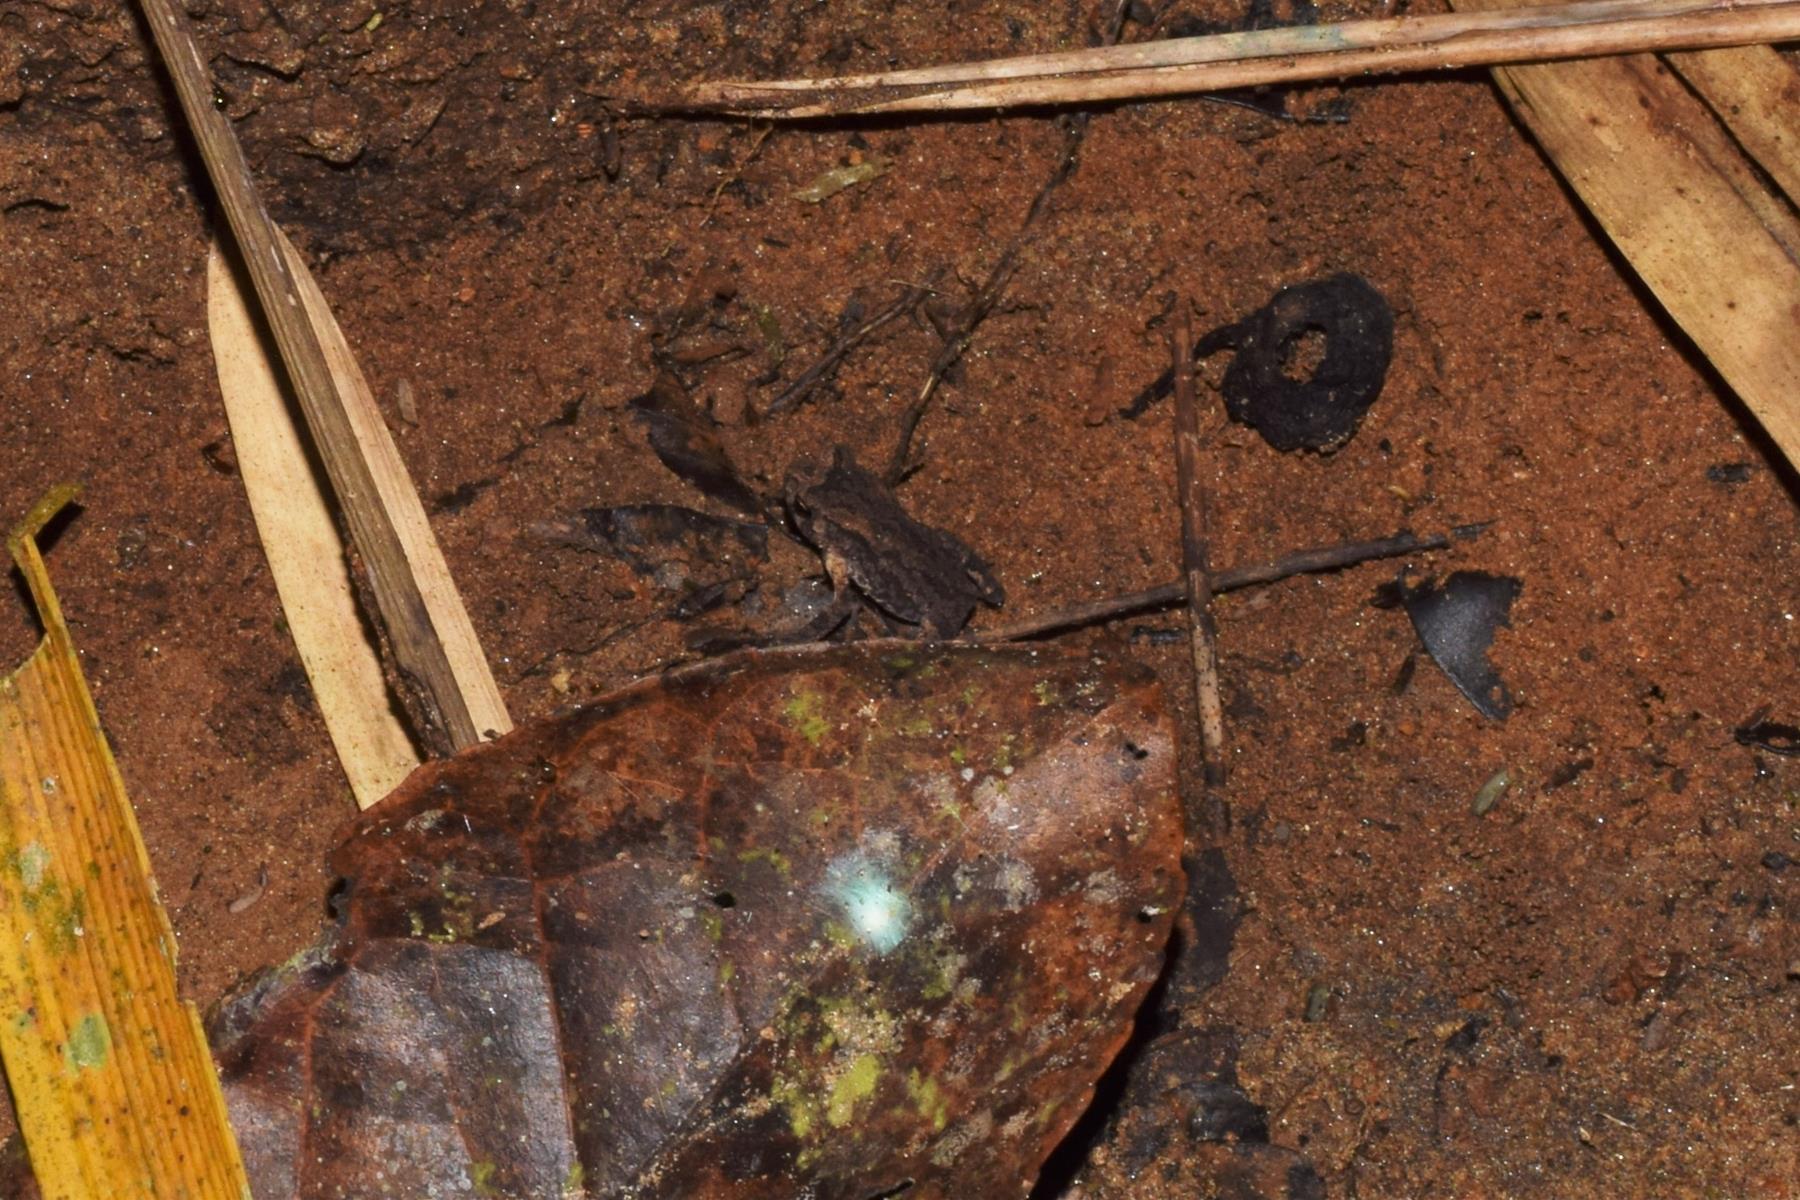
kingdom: Animalia
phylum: Chordata
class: Amphibia
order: Anura
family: Bufonidae
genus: Duttaphrynus
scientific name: Duttaphrynus melanostictus
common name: Common sunda toad
